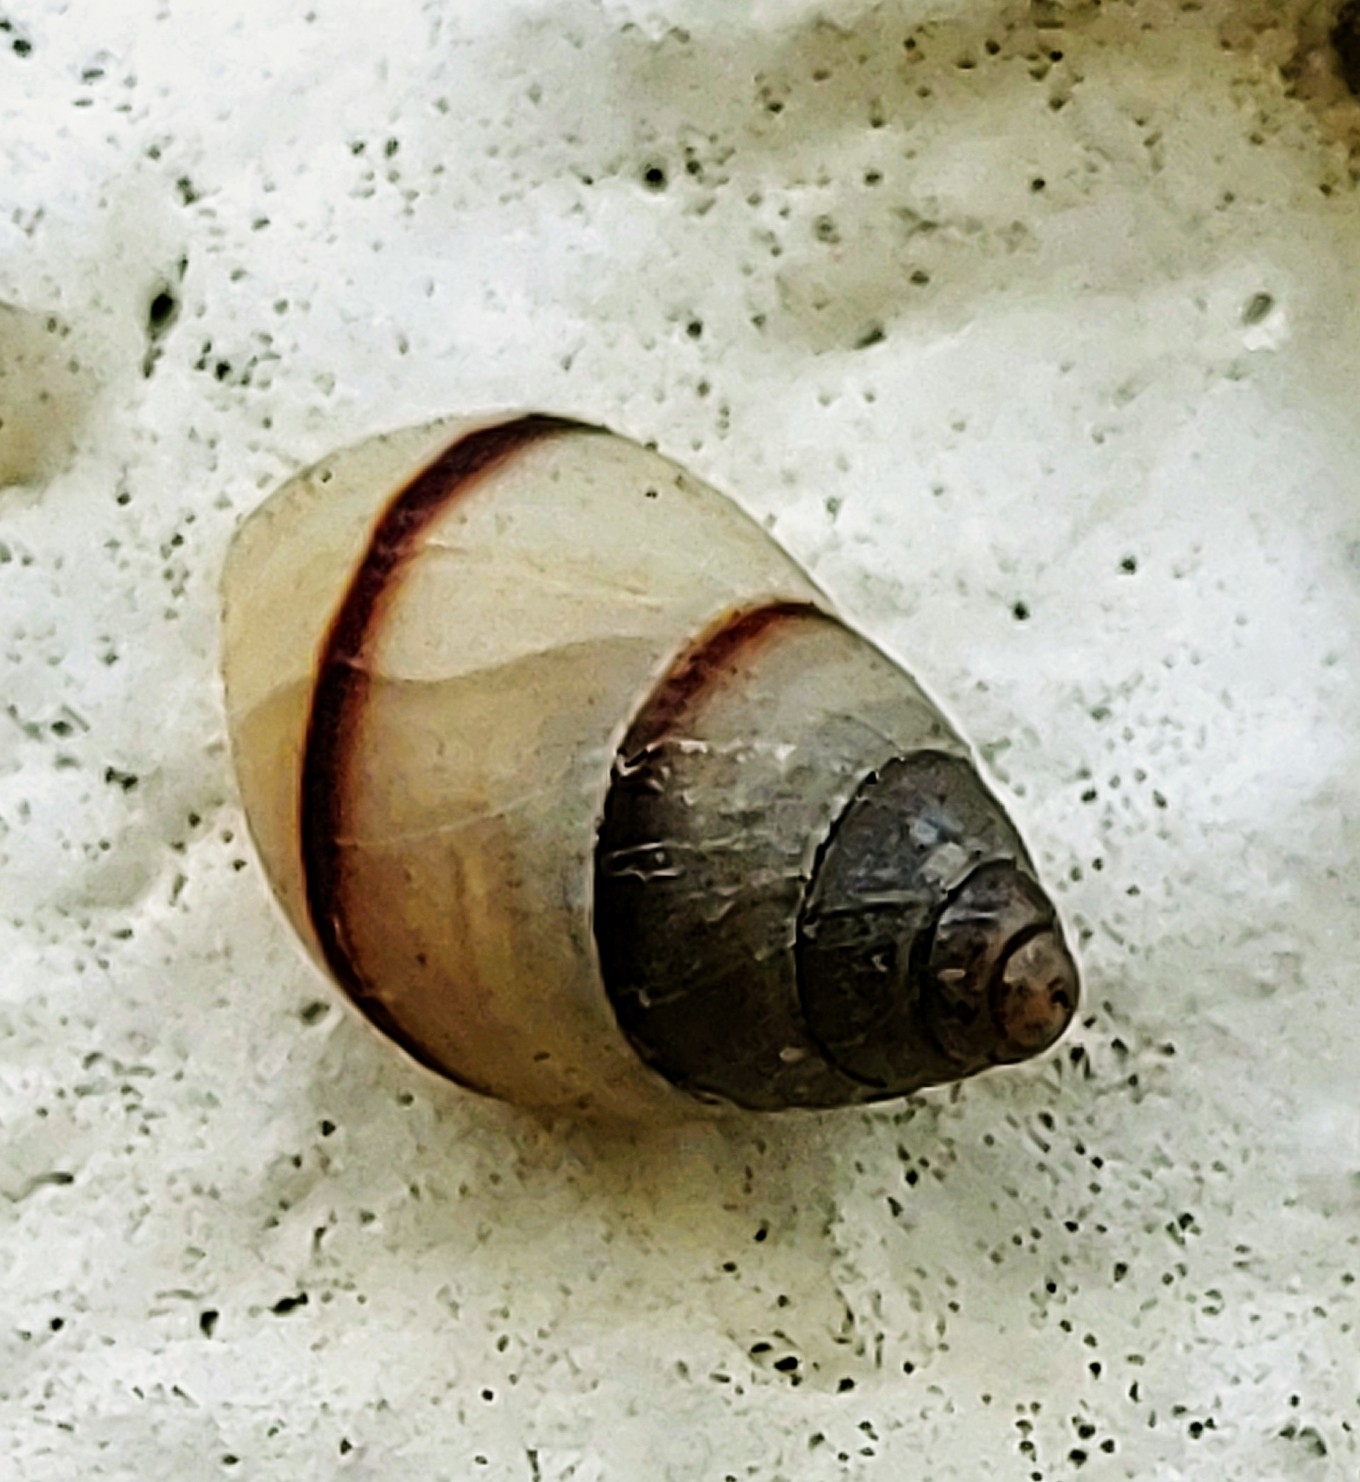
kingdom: Animalia
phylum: Mollusca
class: Gastropoda
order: Stylommatophora
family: Bulimulidae
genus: Bulimulus
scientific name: Bulimulus guadalupensis
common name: West indian bulimulus
